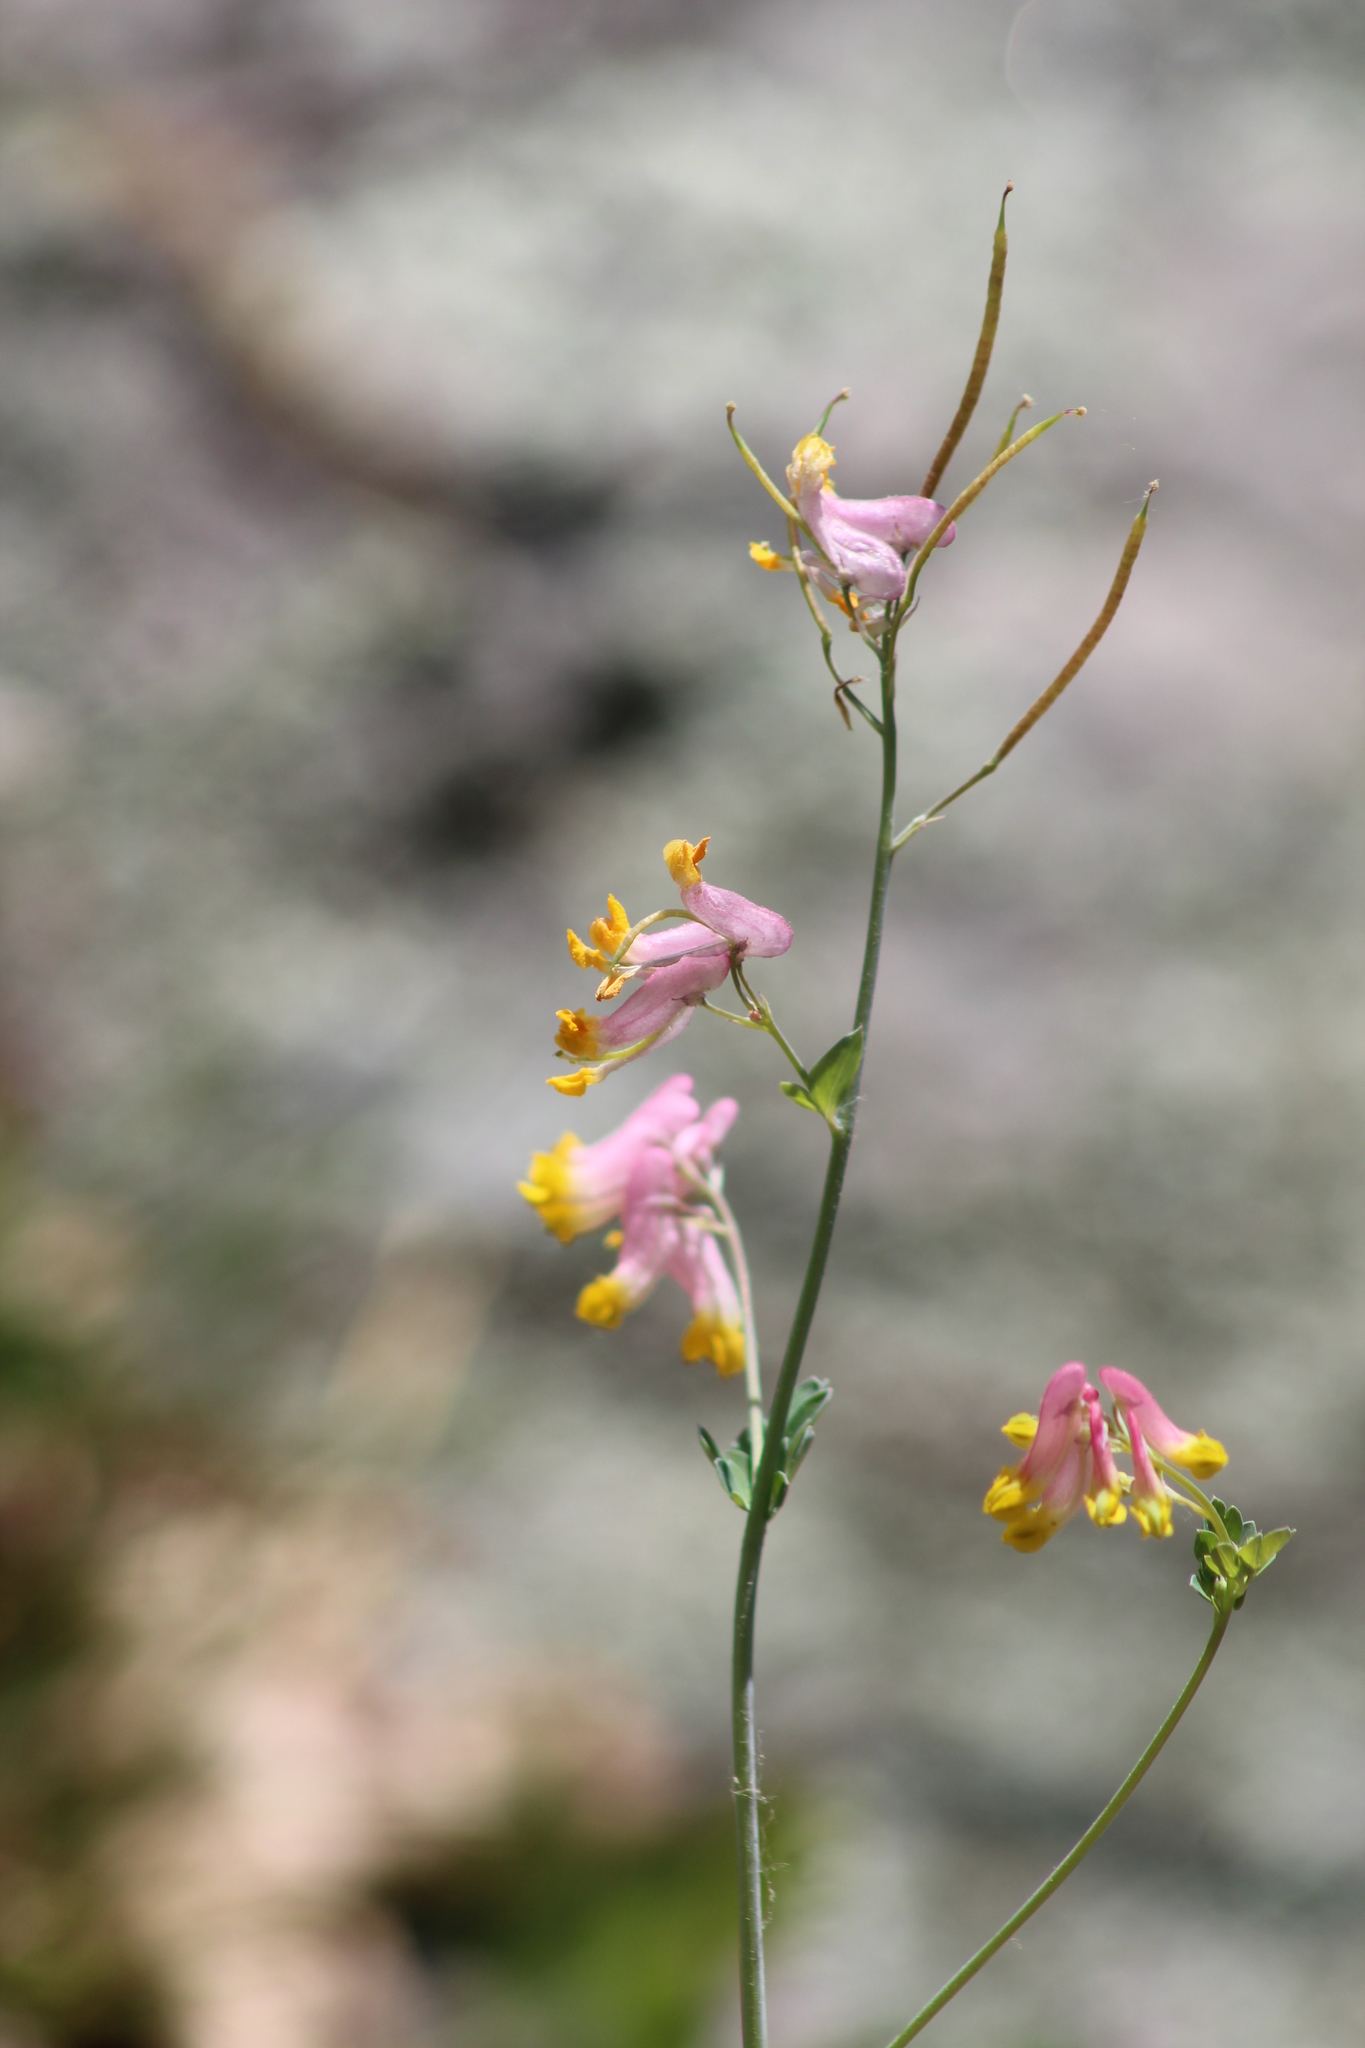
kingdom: Plantae
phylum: Tracheophyta
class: Magnoliopsida
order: Ranunculales
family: Papaveraceae
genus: Capnoides
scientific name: Capnoides sempervirens
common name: Rock harlequin
